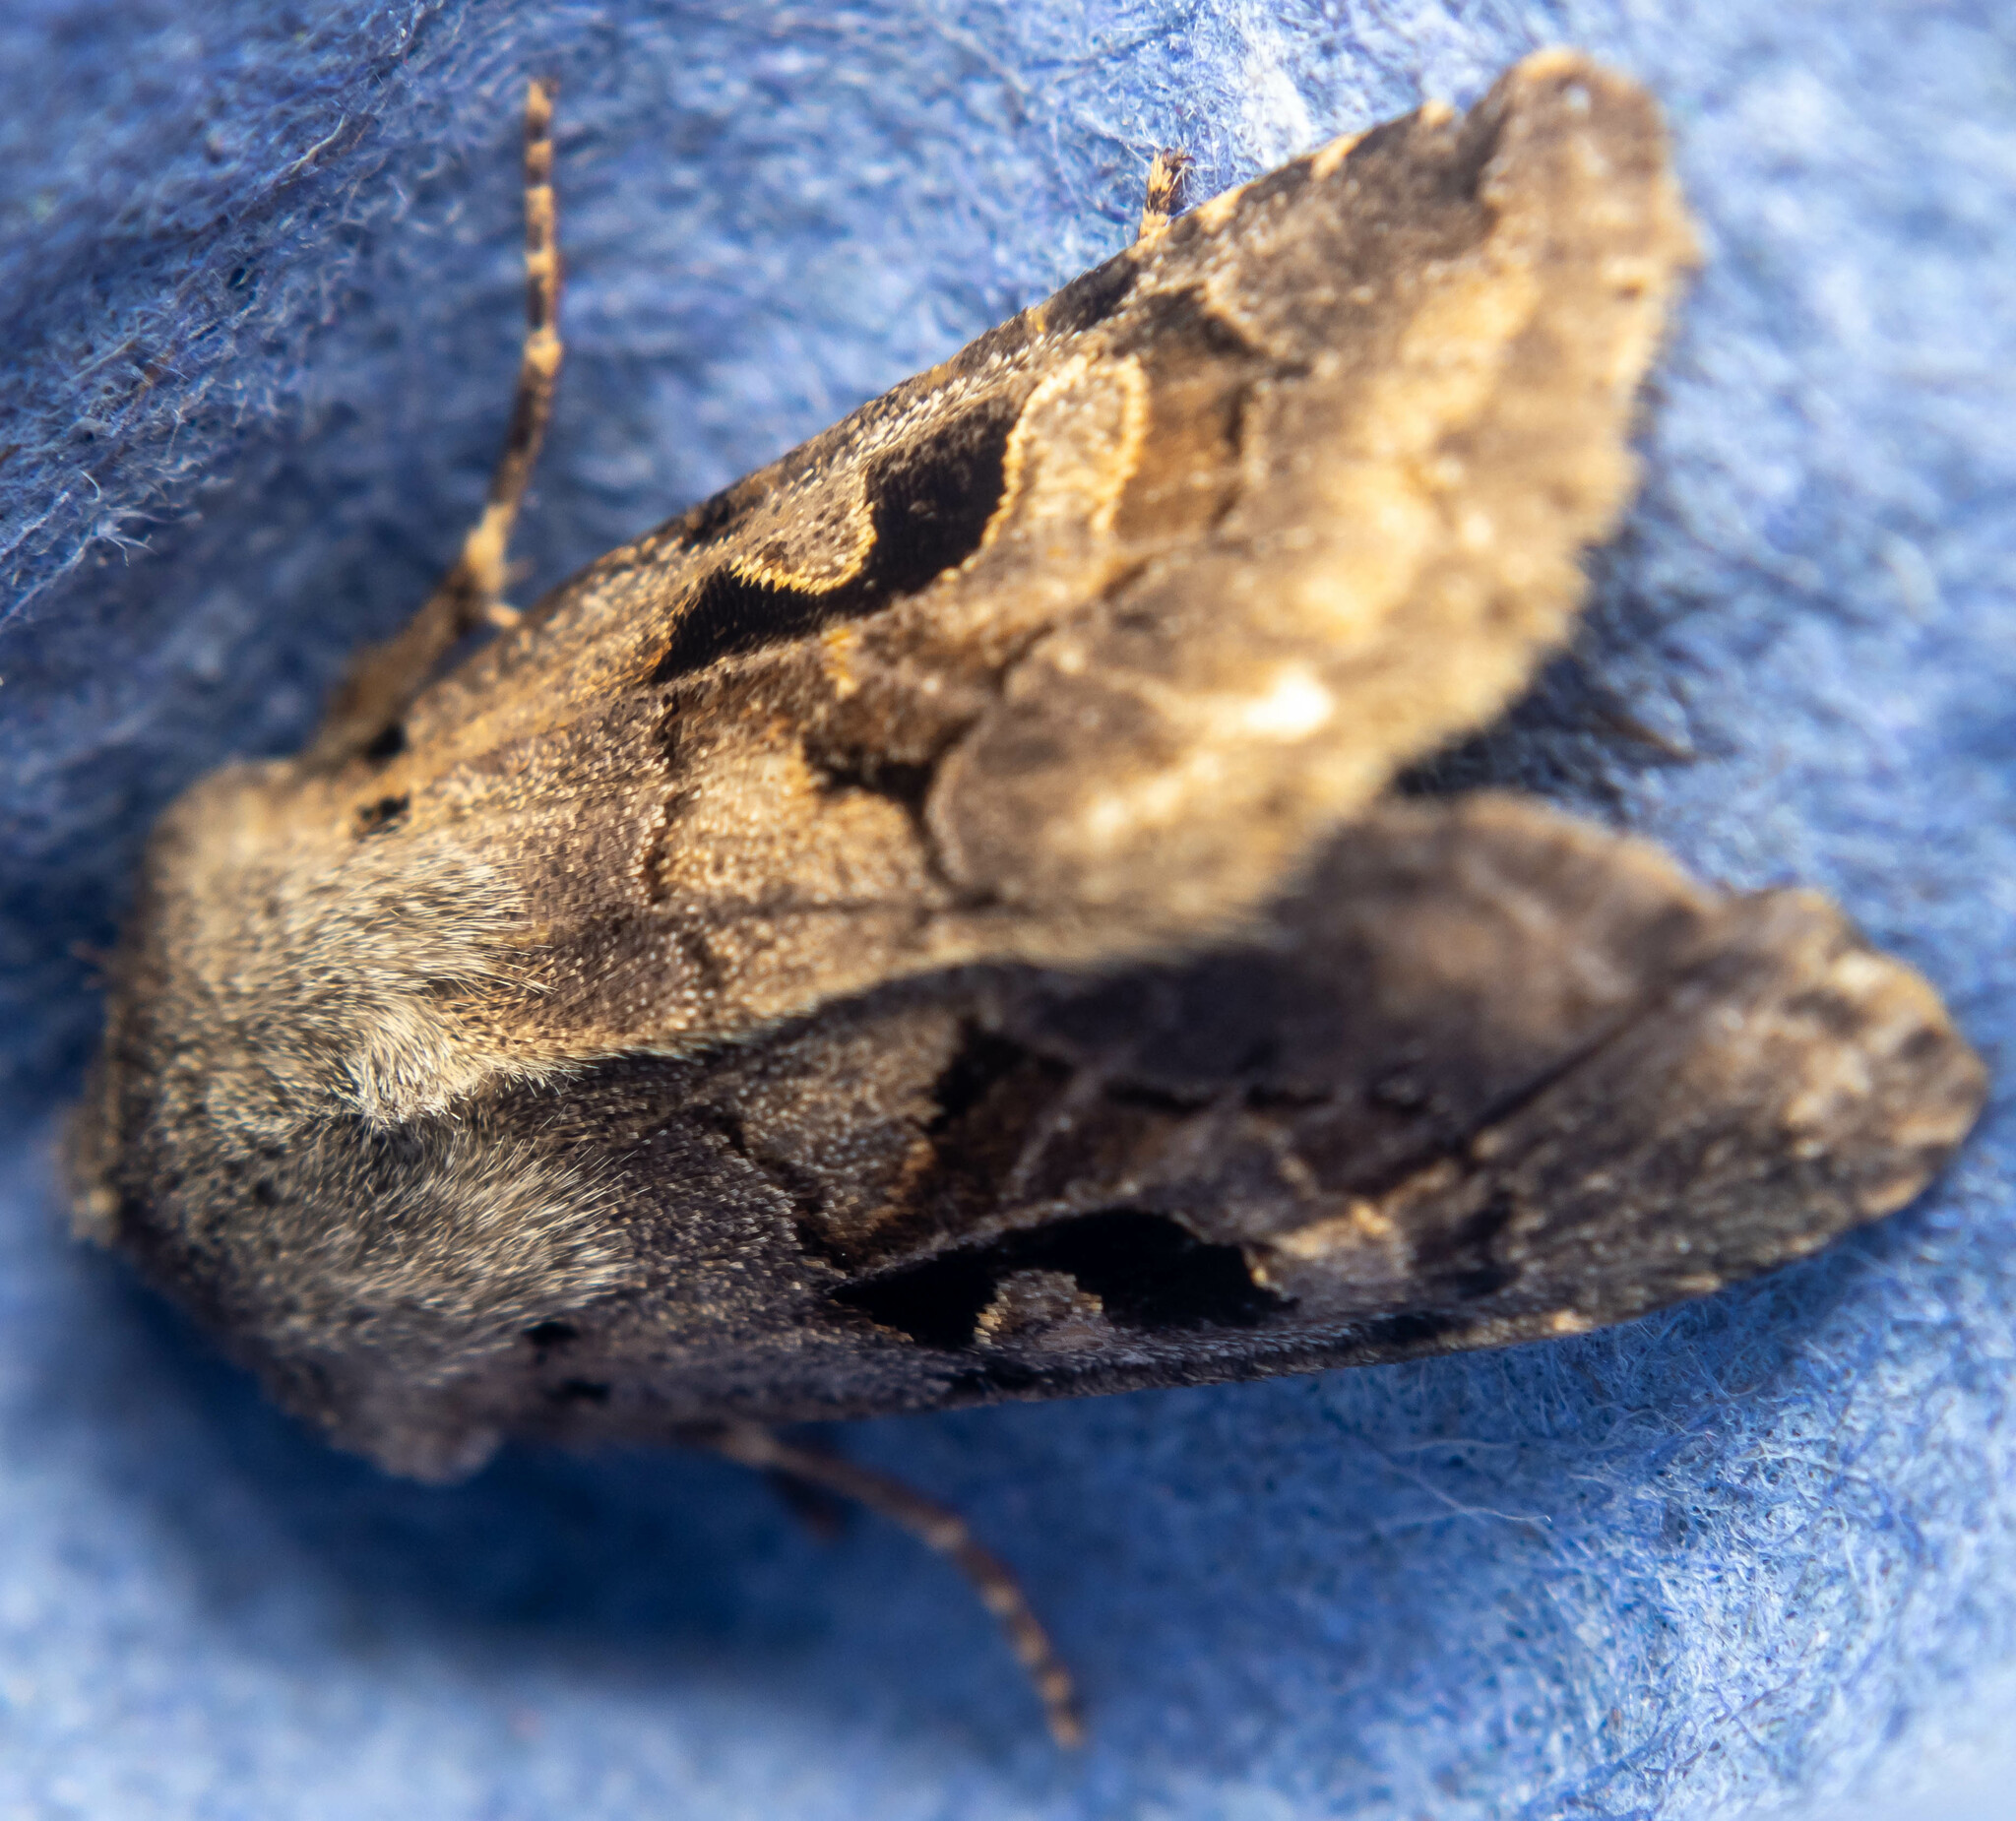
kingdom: Animalia
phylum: Arthropoda
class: Insecta
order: Lepidoptera
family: Noctuidae
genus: Orthosia
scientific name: Orthosia gothica
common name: Hebrew character
